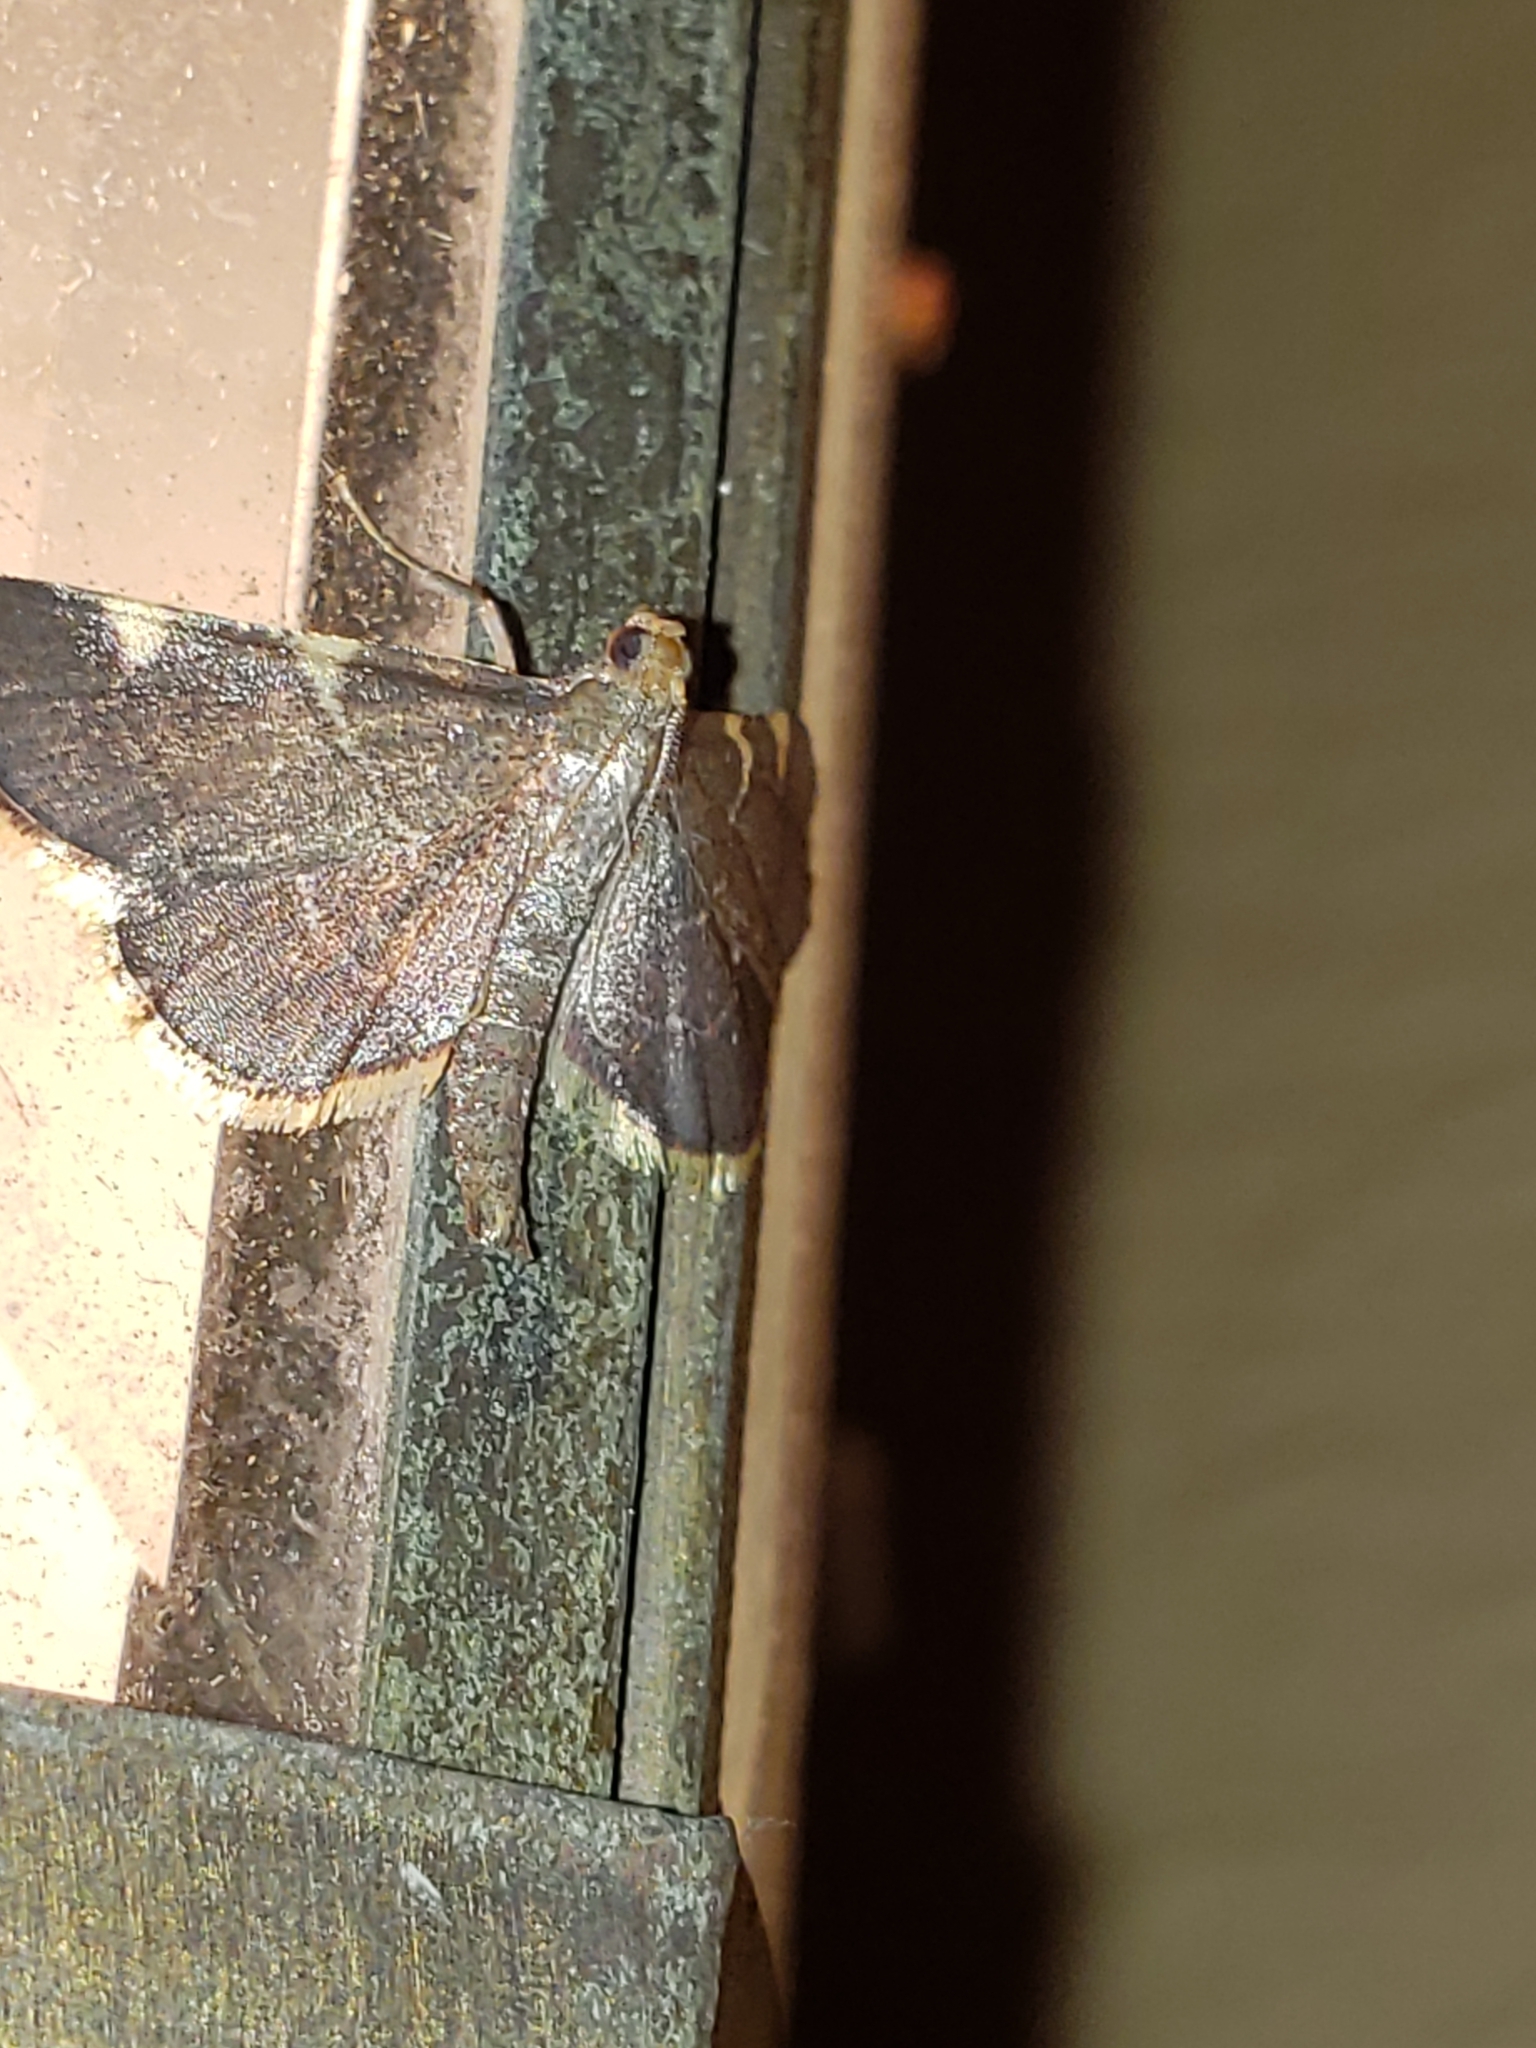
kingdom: Animalia
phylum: Arthropoda
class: Insecta
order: Lepidoptera
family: Pyralidae
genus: Hypsopygia
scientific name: Hypsopygia olinalis
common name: Yellow-fringed dolichomia moth
